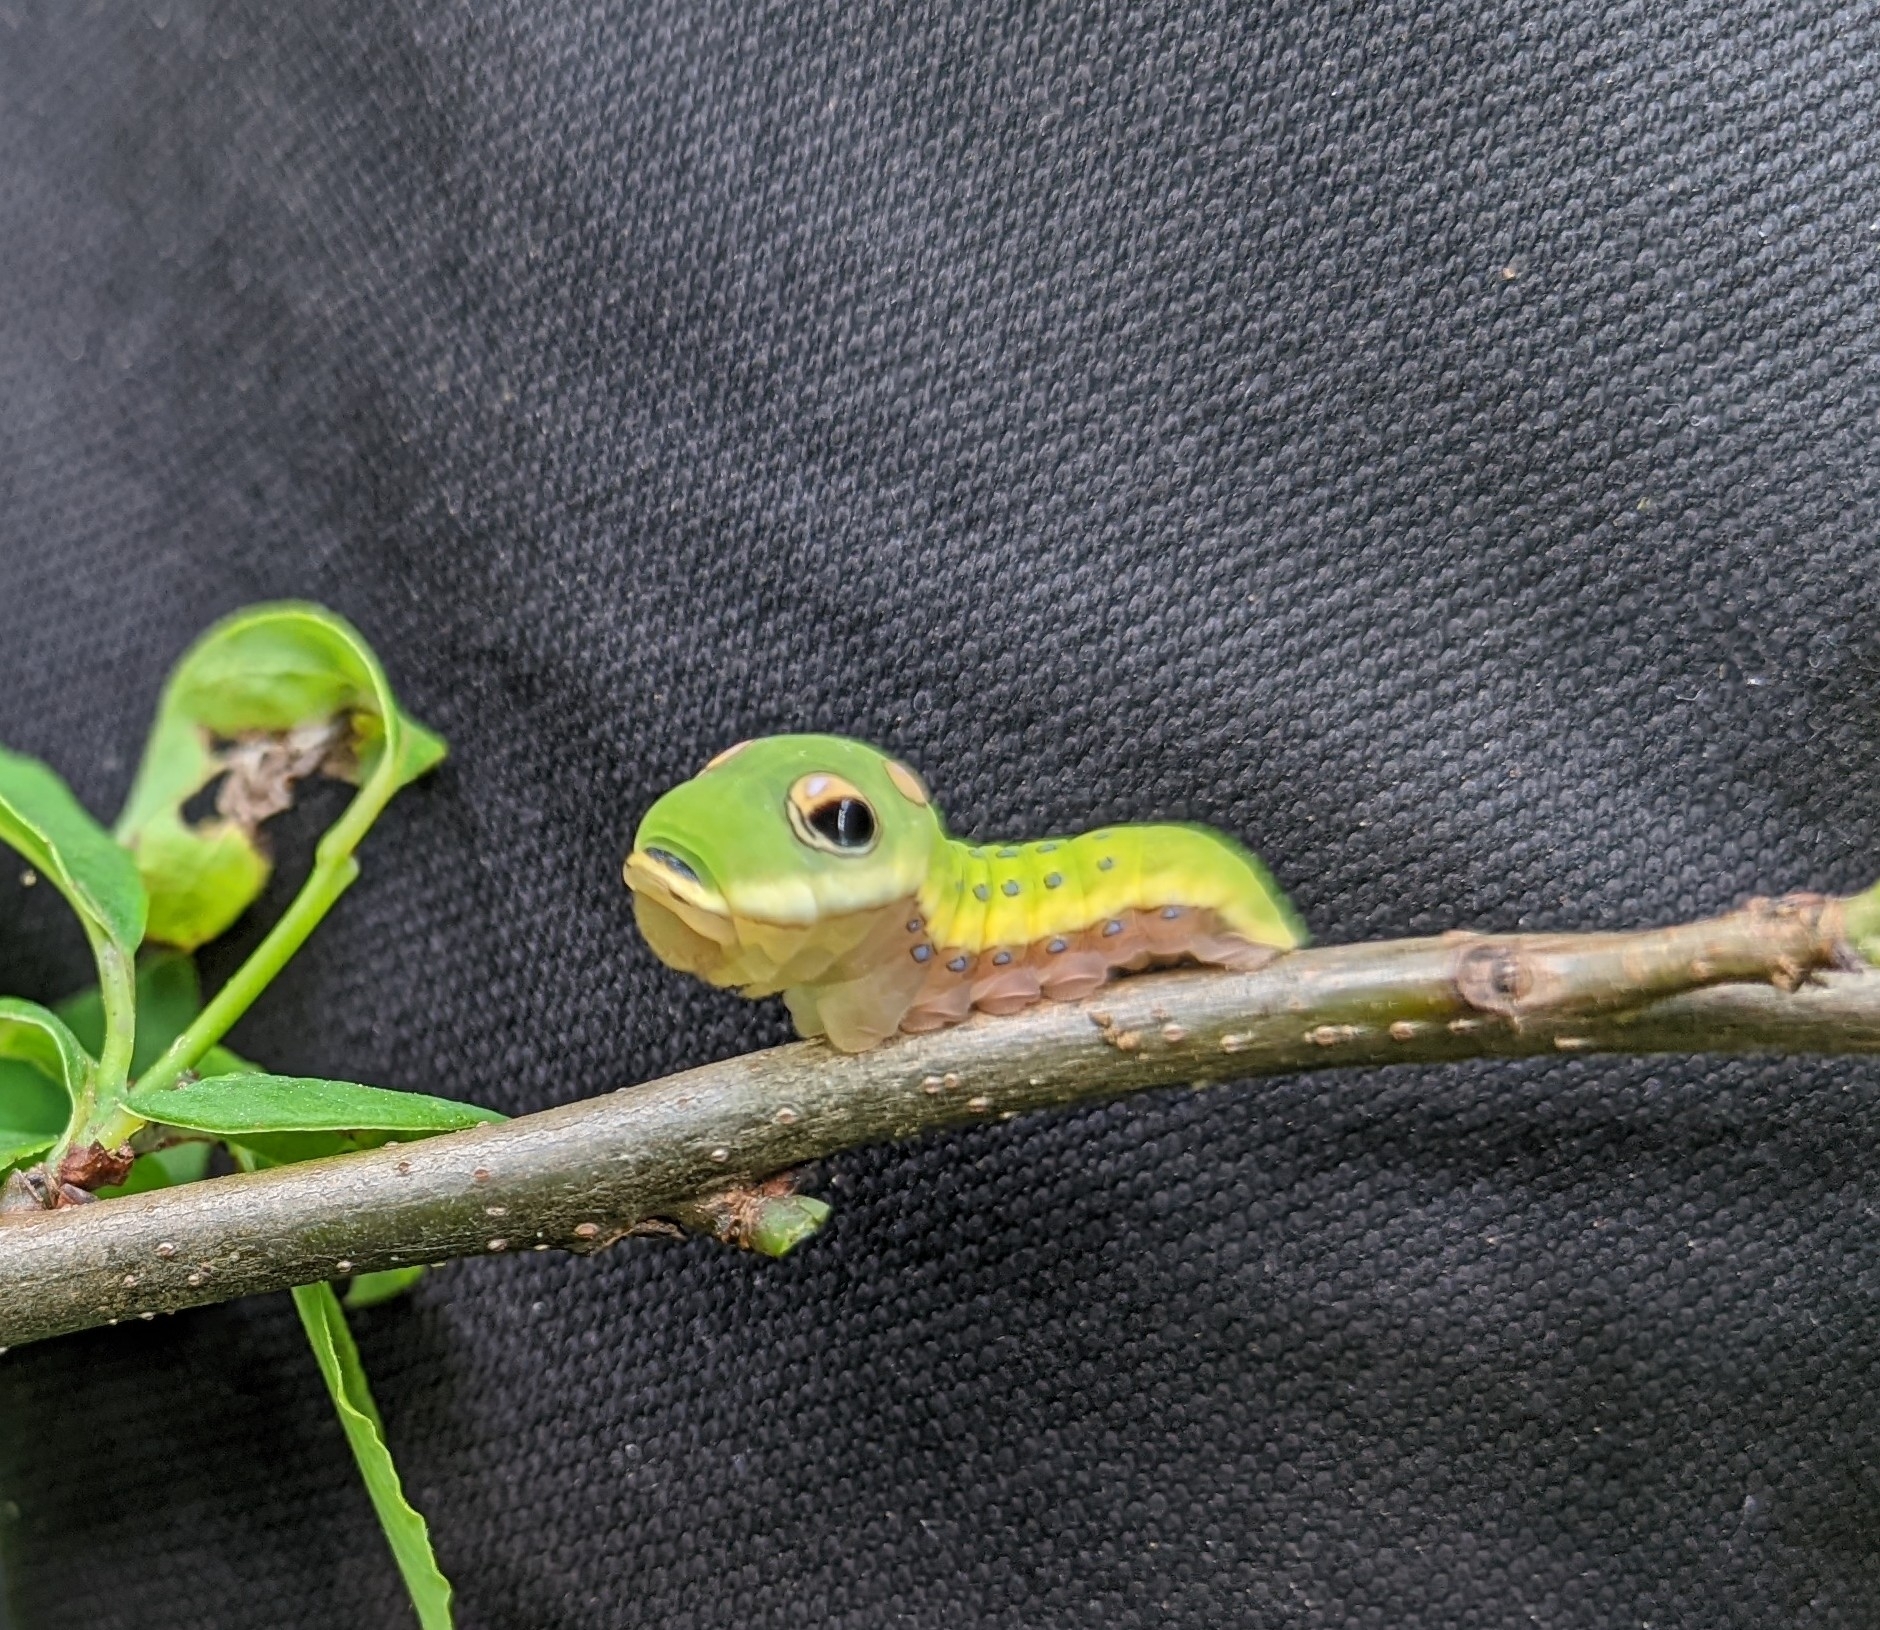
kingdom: Animalia
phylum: Arthropoda
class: Insecta
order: Lepidoptera
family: Papilionidae
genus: Papilio
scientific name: Papilio troilus
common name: Spicebush swallowtail
